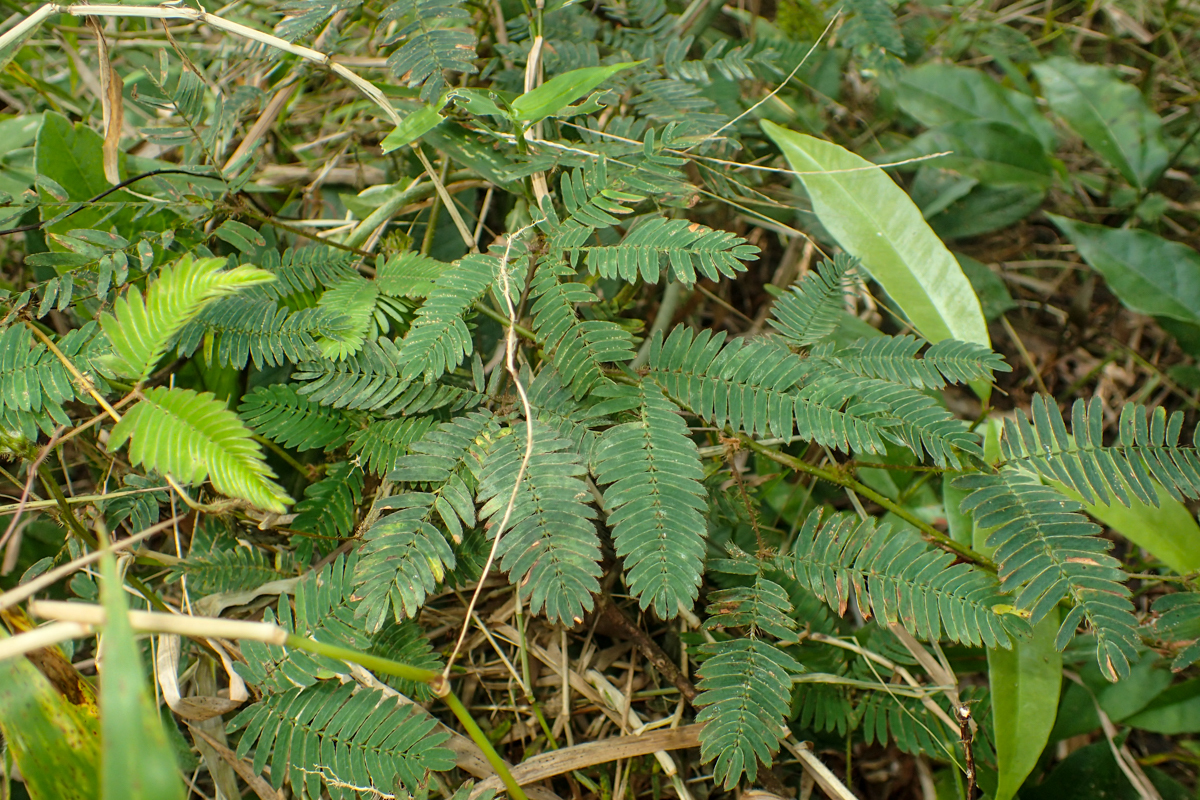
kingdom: Plantae
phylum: Tracheophyta
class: Magnoliopsida
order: Fabales
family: Fabaceae
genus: Mimosa
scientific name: Mimosa pudica
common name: Sensitive plant
